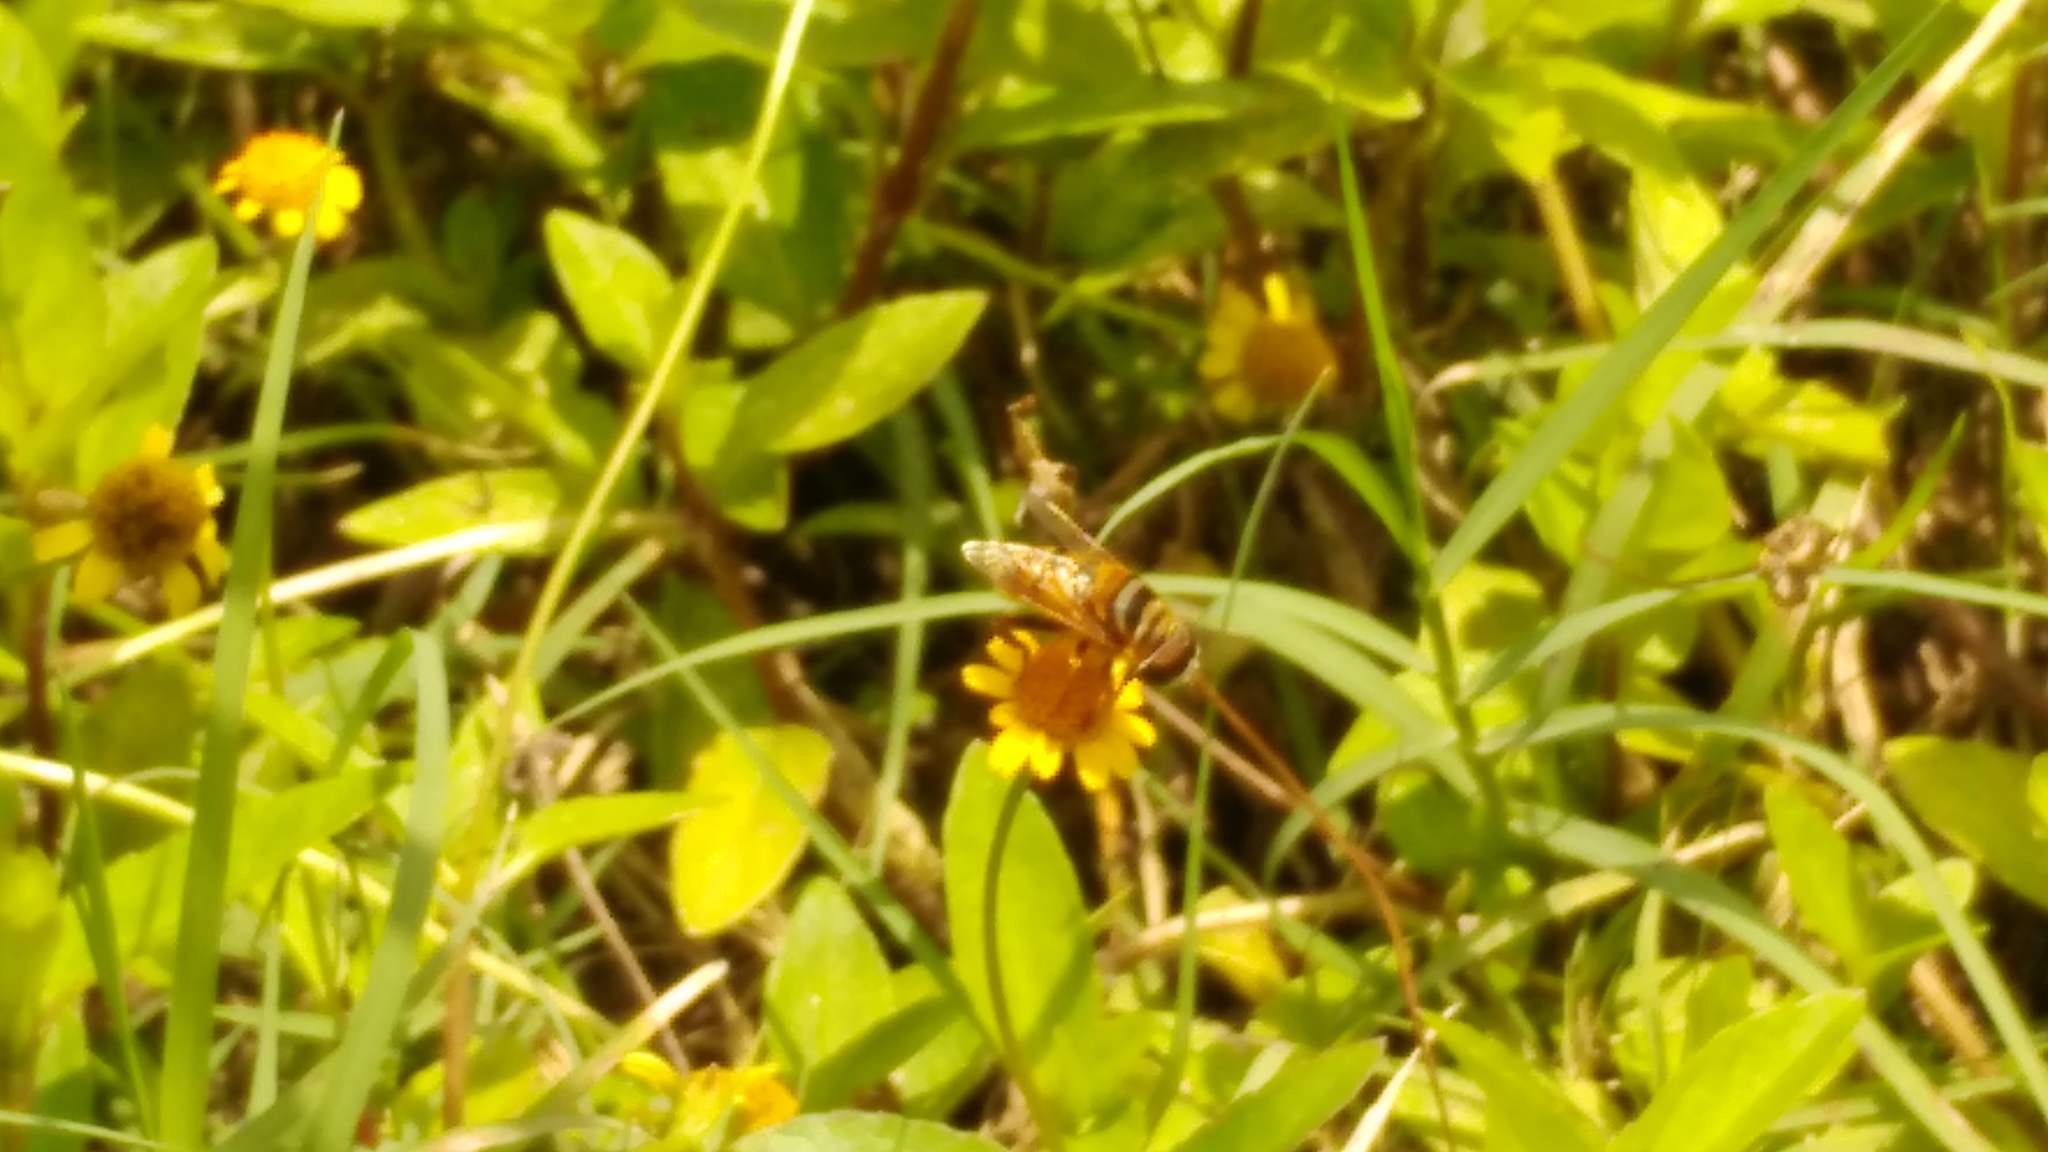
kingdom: Animalia
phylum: Arthropoda
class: Insecta
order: Diptera
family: Syrphidae
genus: Palpada
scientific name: Palpada vinetorum
